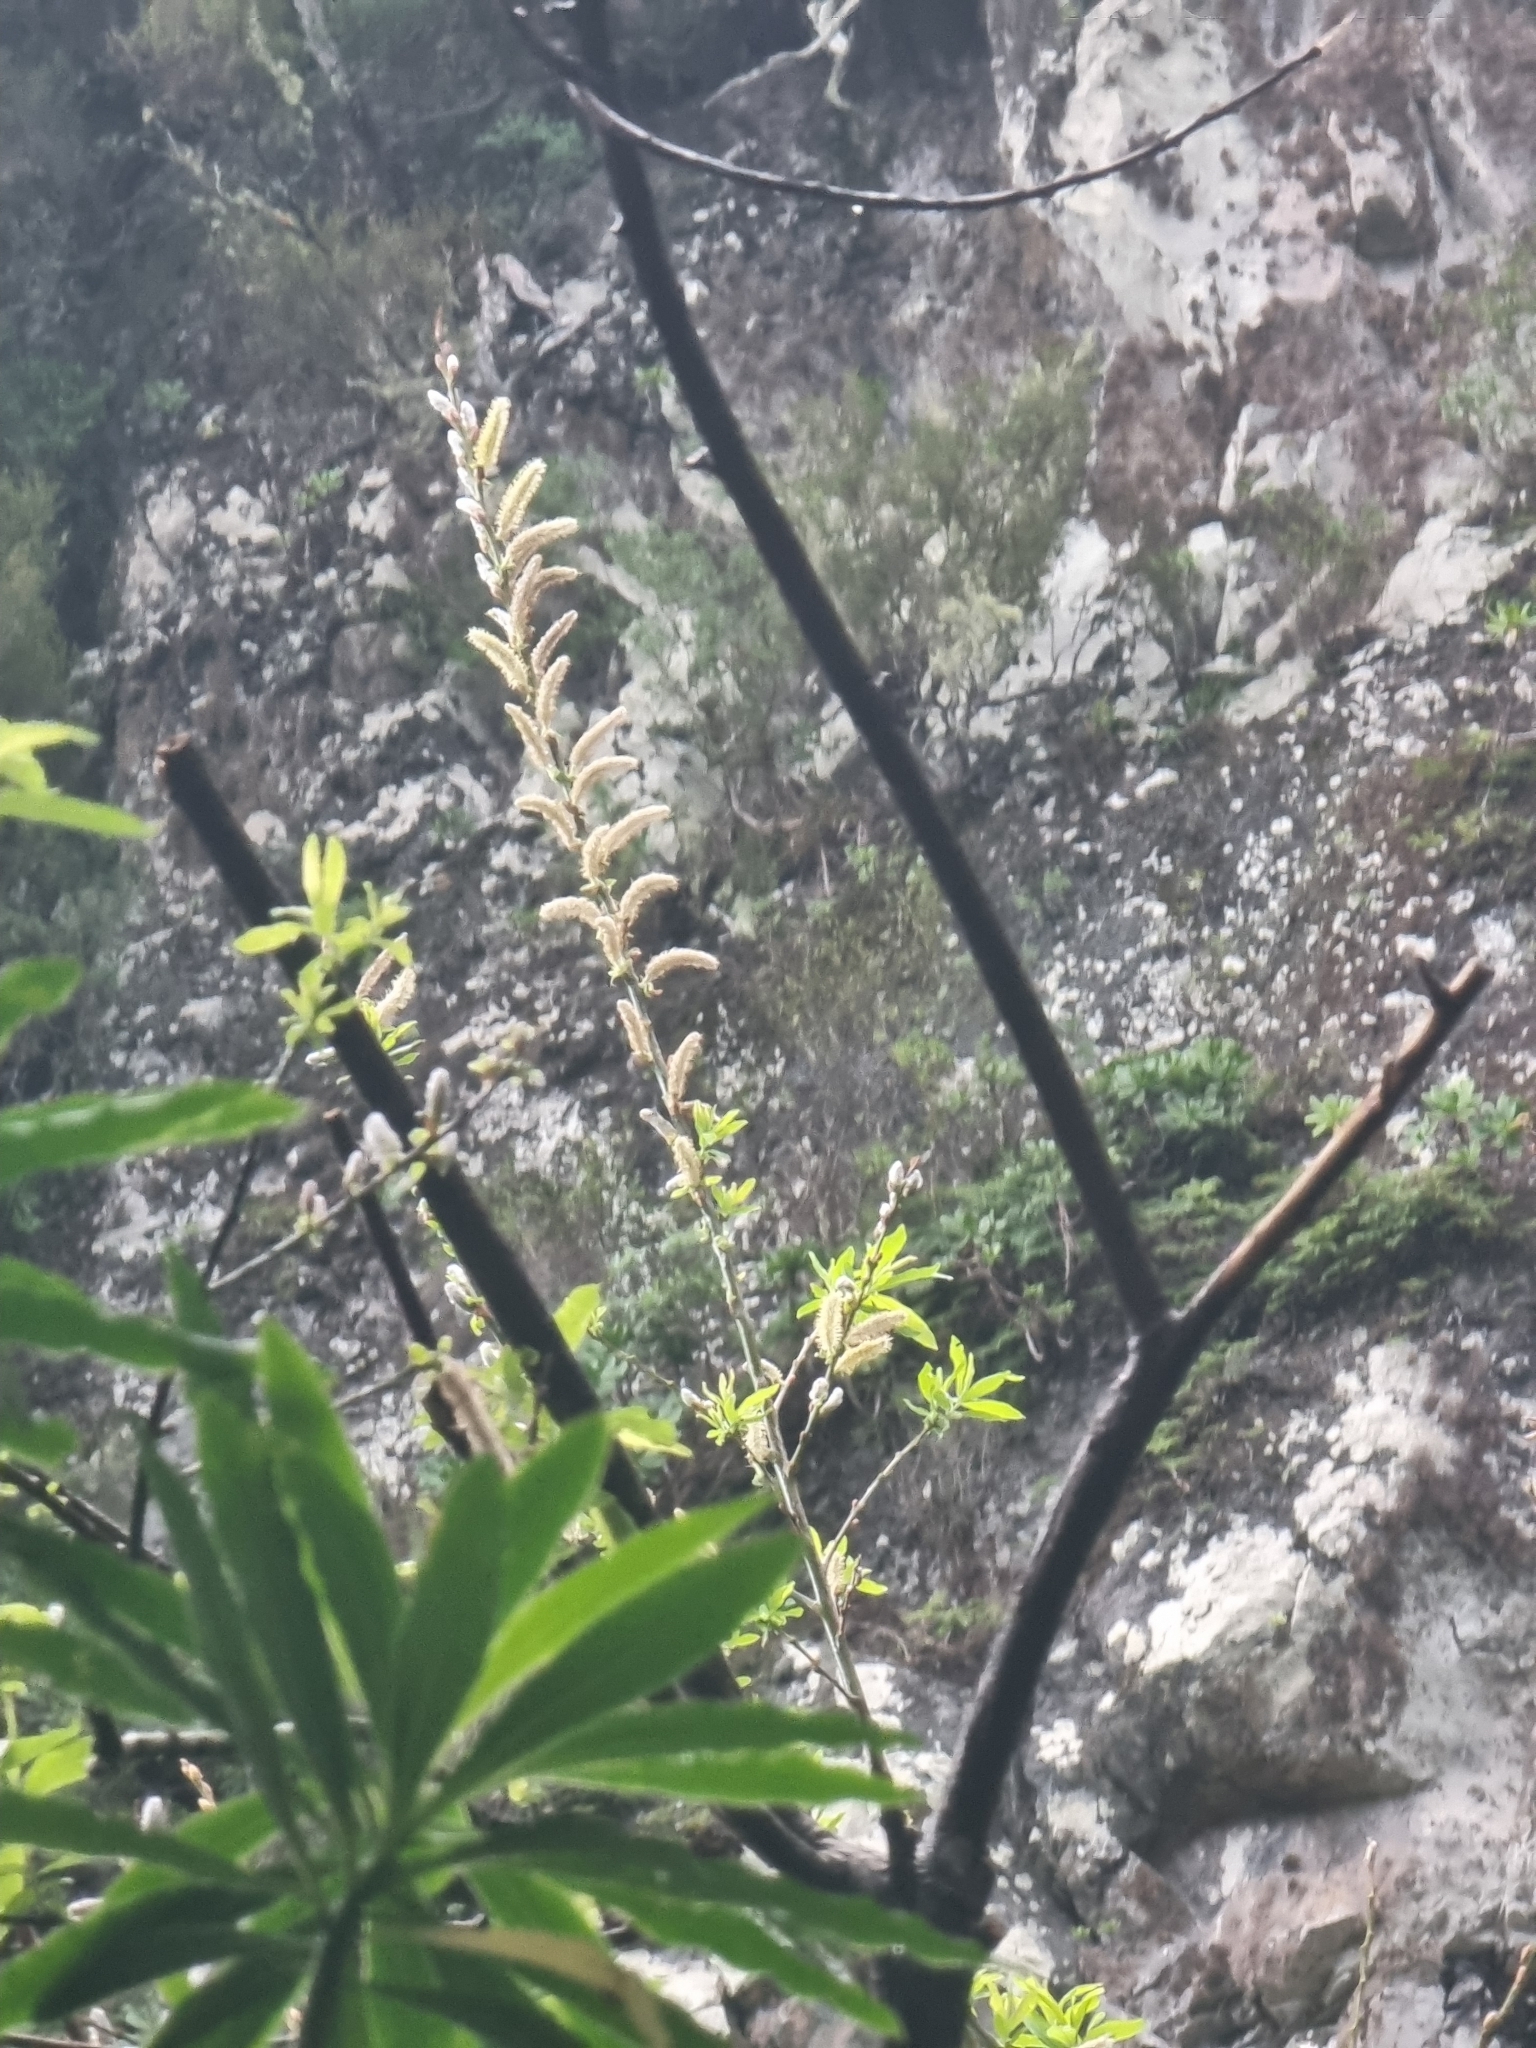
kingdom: Plantae
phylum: Tracheophyta
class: Magnoliopsida
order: Malpighiales
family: Salicaceae
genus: Salix
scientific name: Salix canariensis
